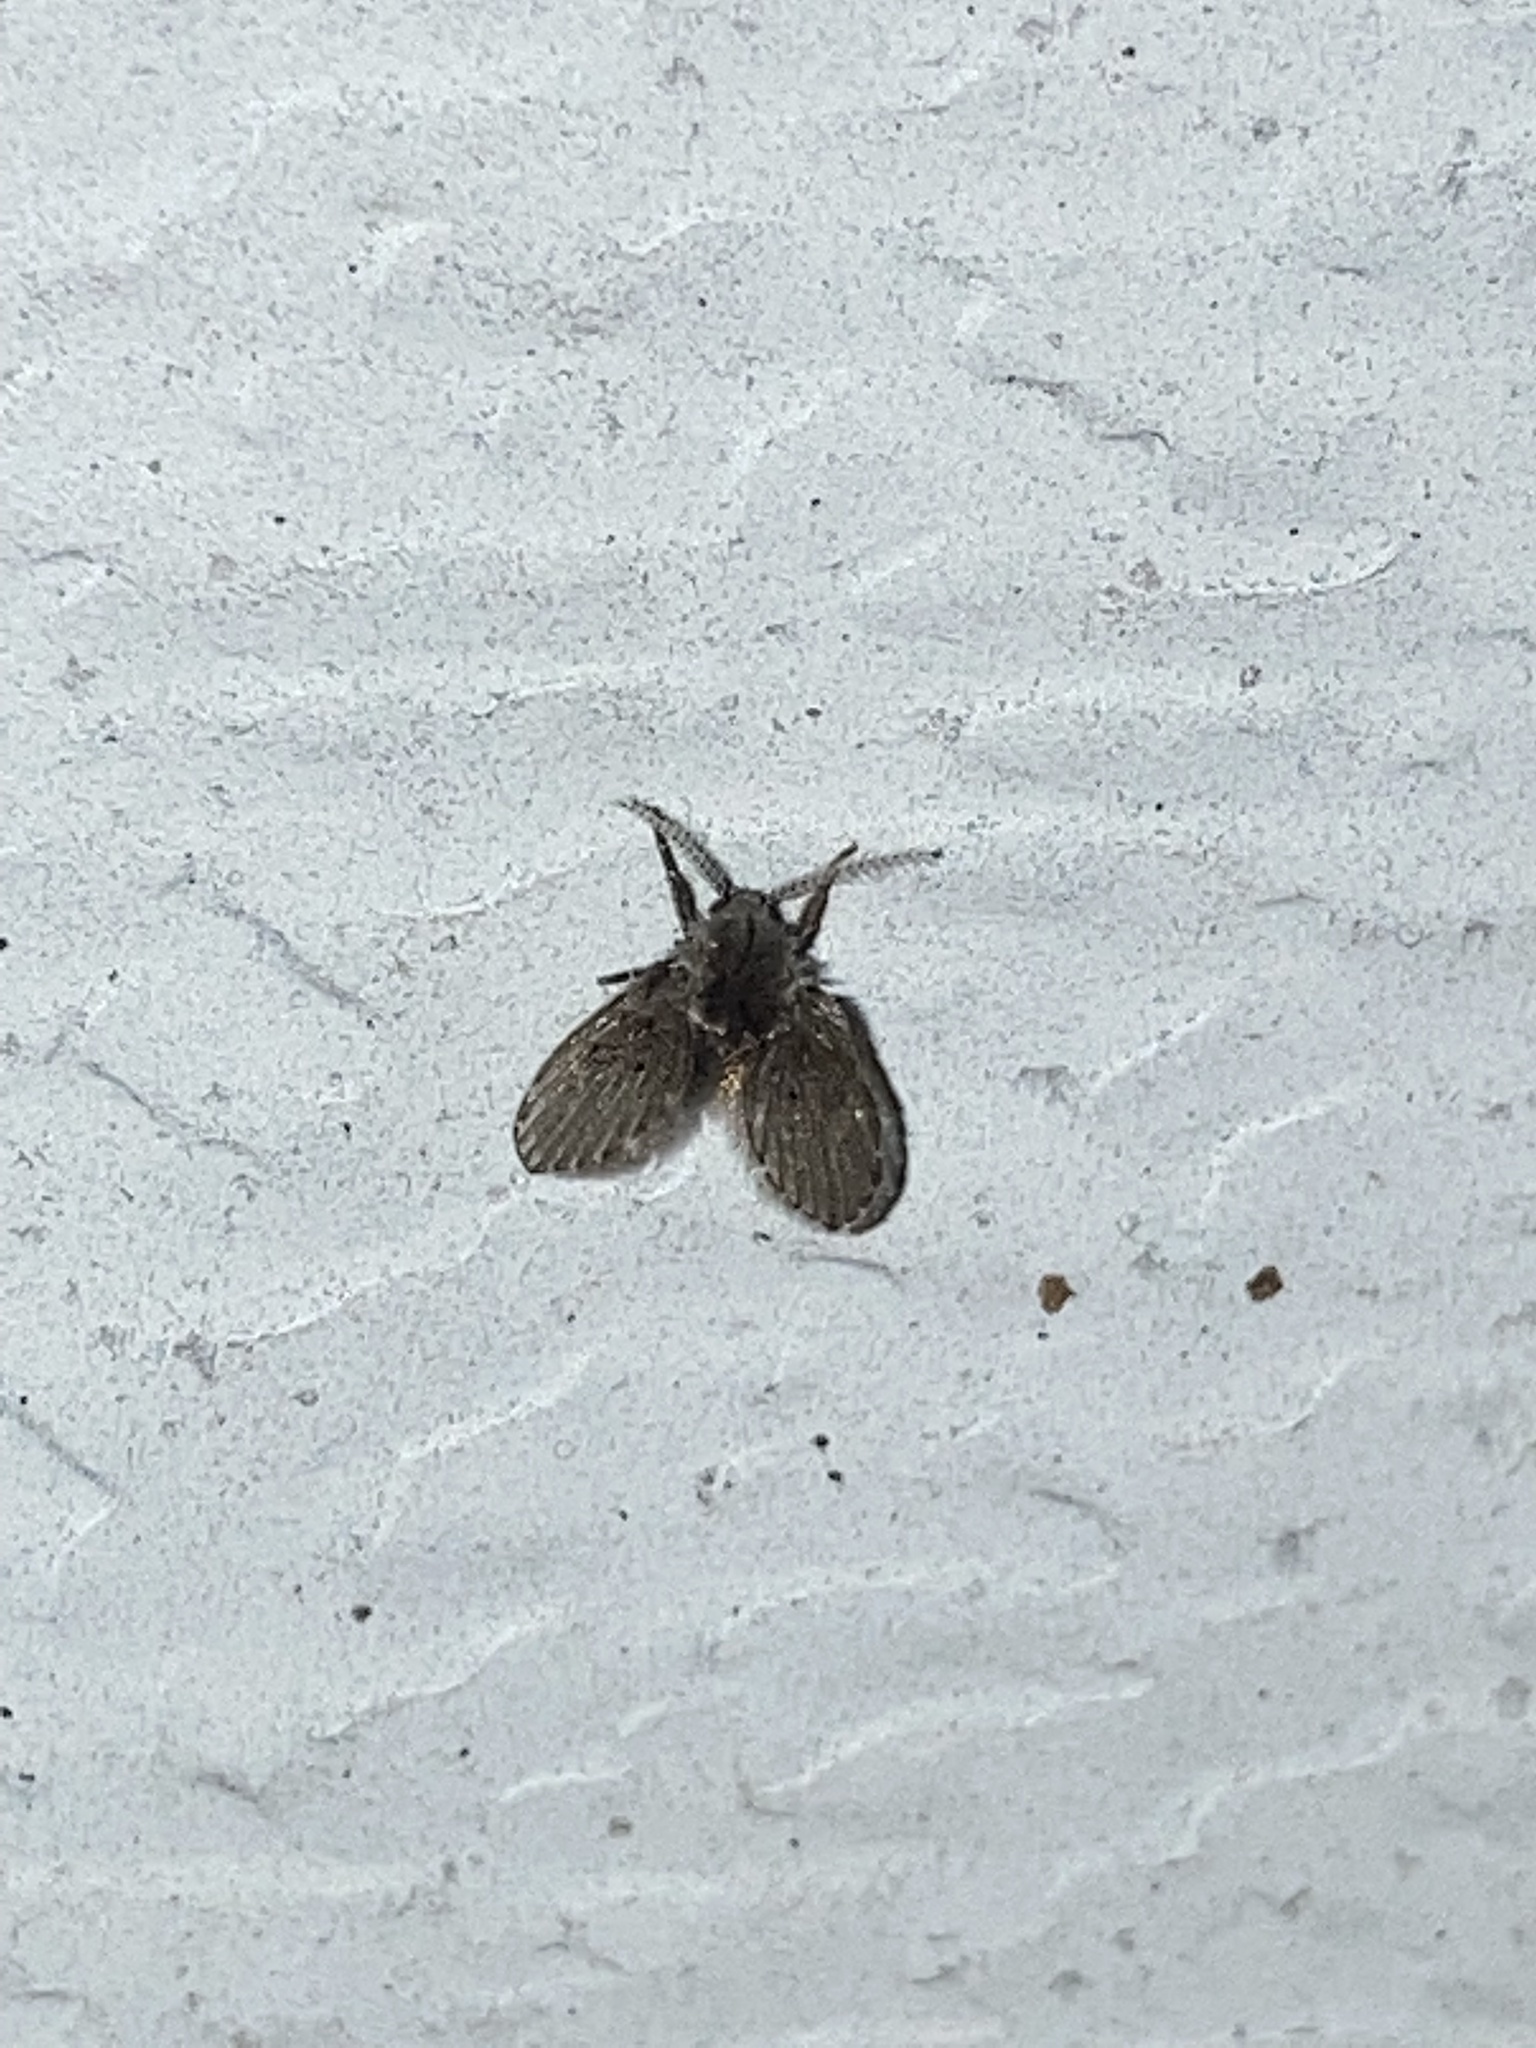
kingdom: Animalia
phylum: Arthropoda
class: Insecta
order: Diptera
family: Psychodidae
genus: Clogmia
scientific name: Clogmia albipunctatus
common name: White-spotted moth fly
